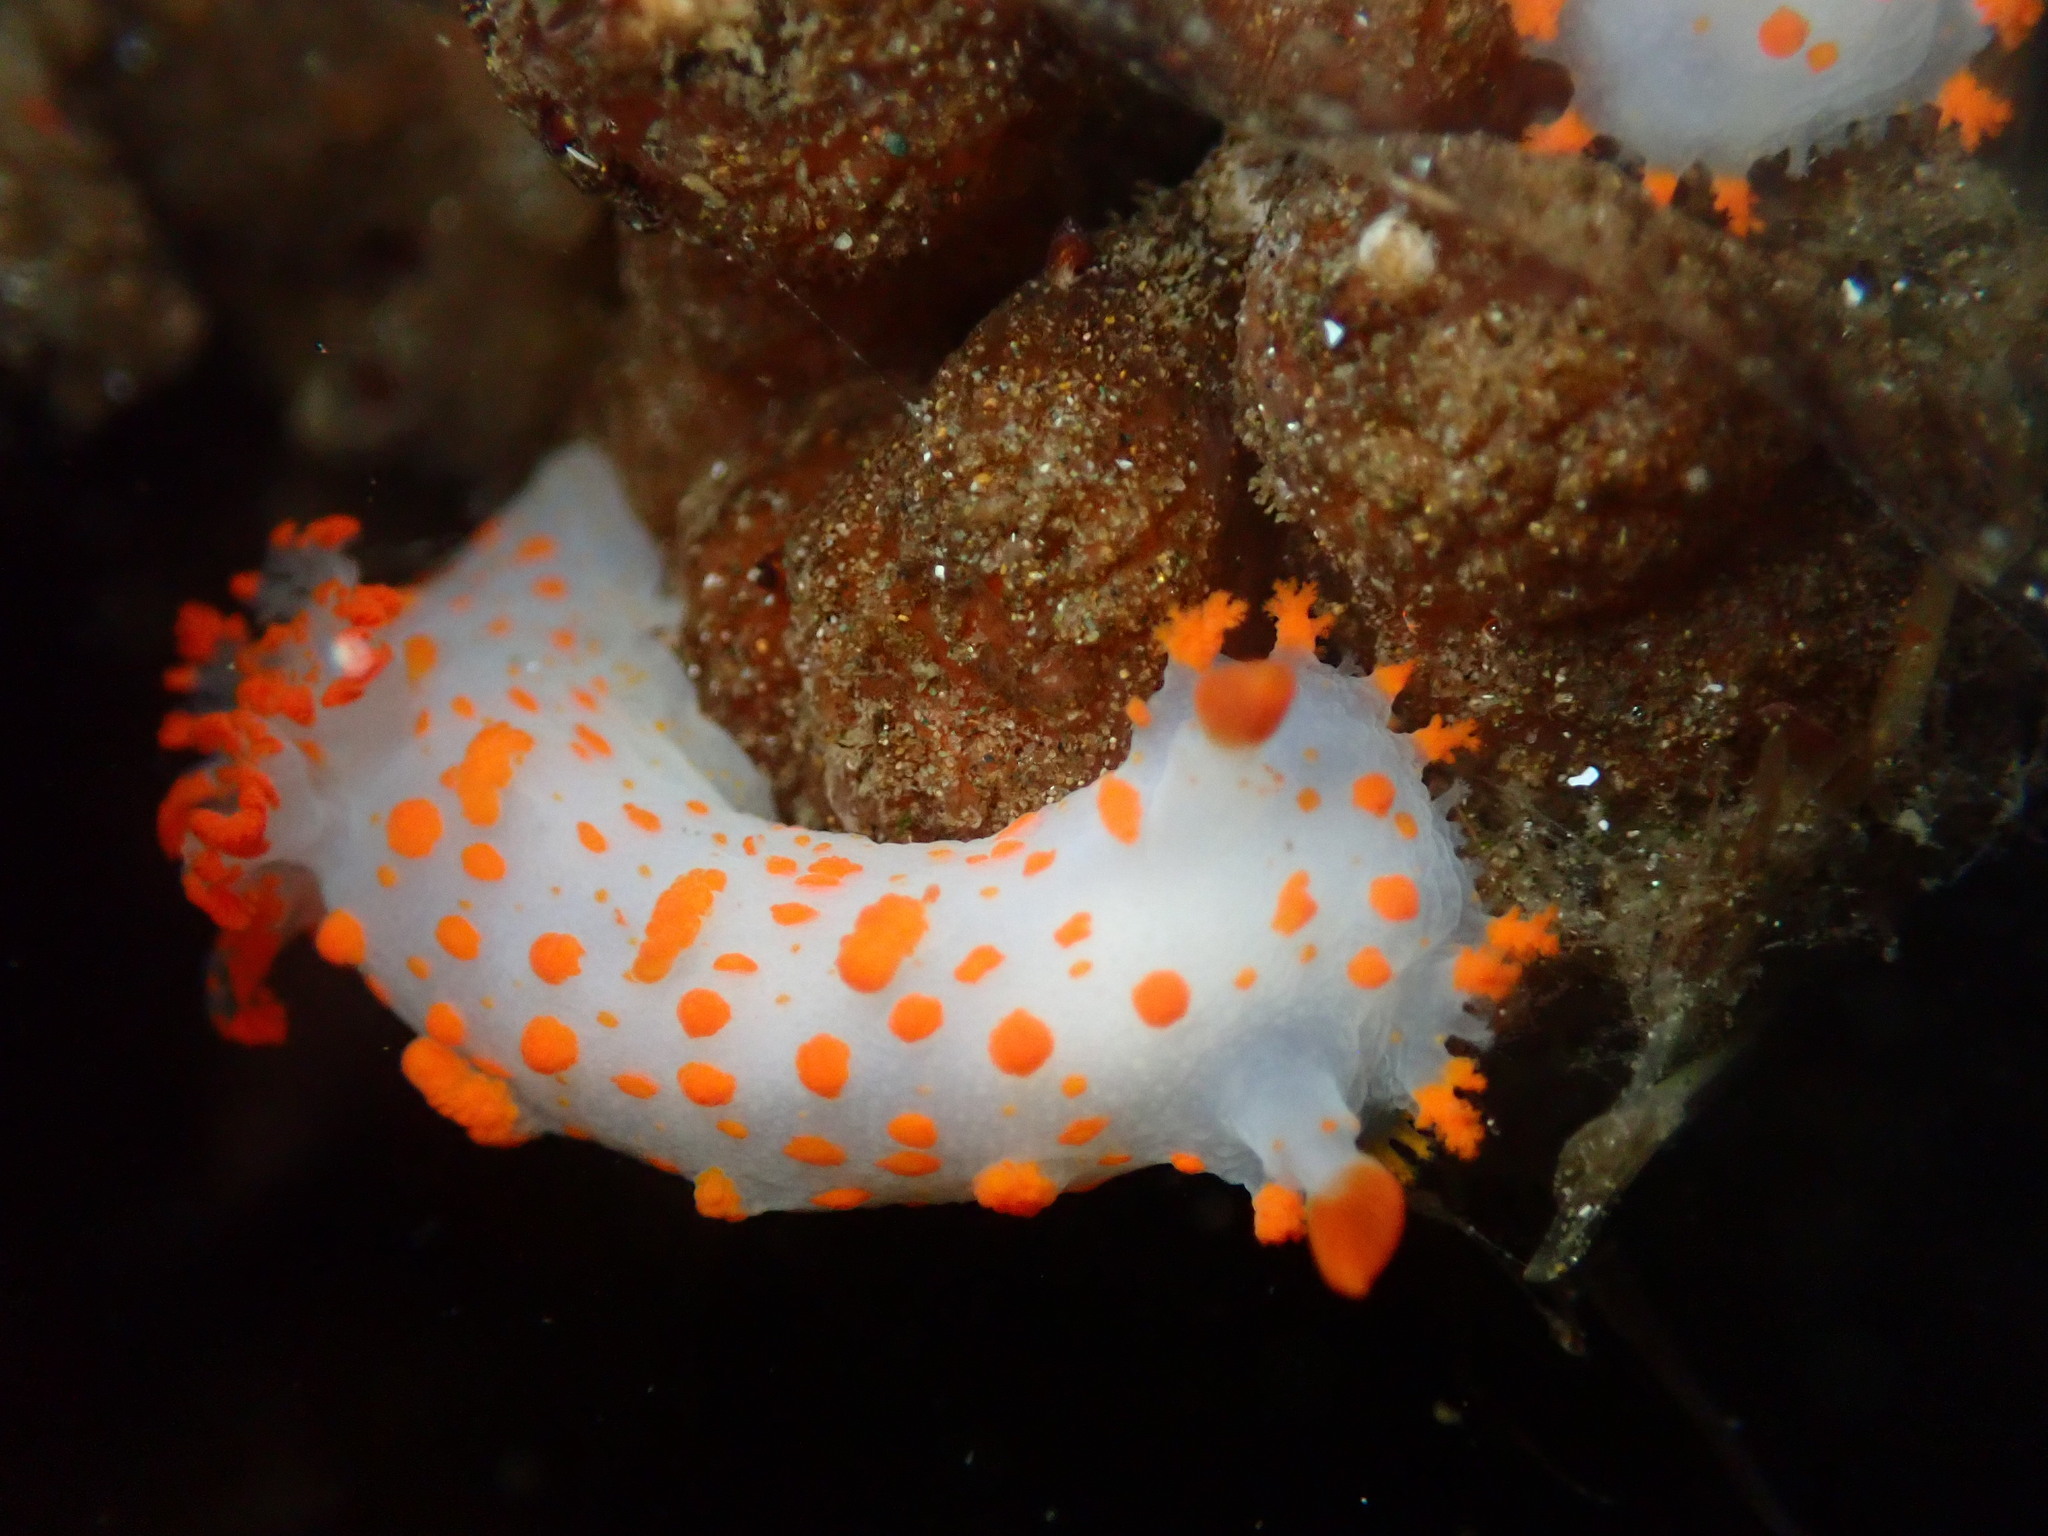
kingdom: Animalia
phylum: Mollusca
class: Gastropoda
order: Nudibranchia
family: Polyceridae
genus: Triopha
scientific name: Triopha catalinae
